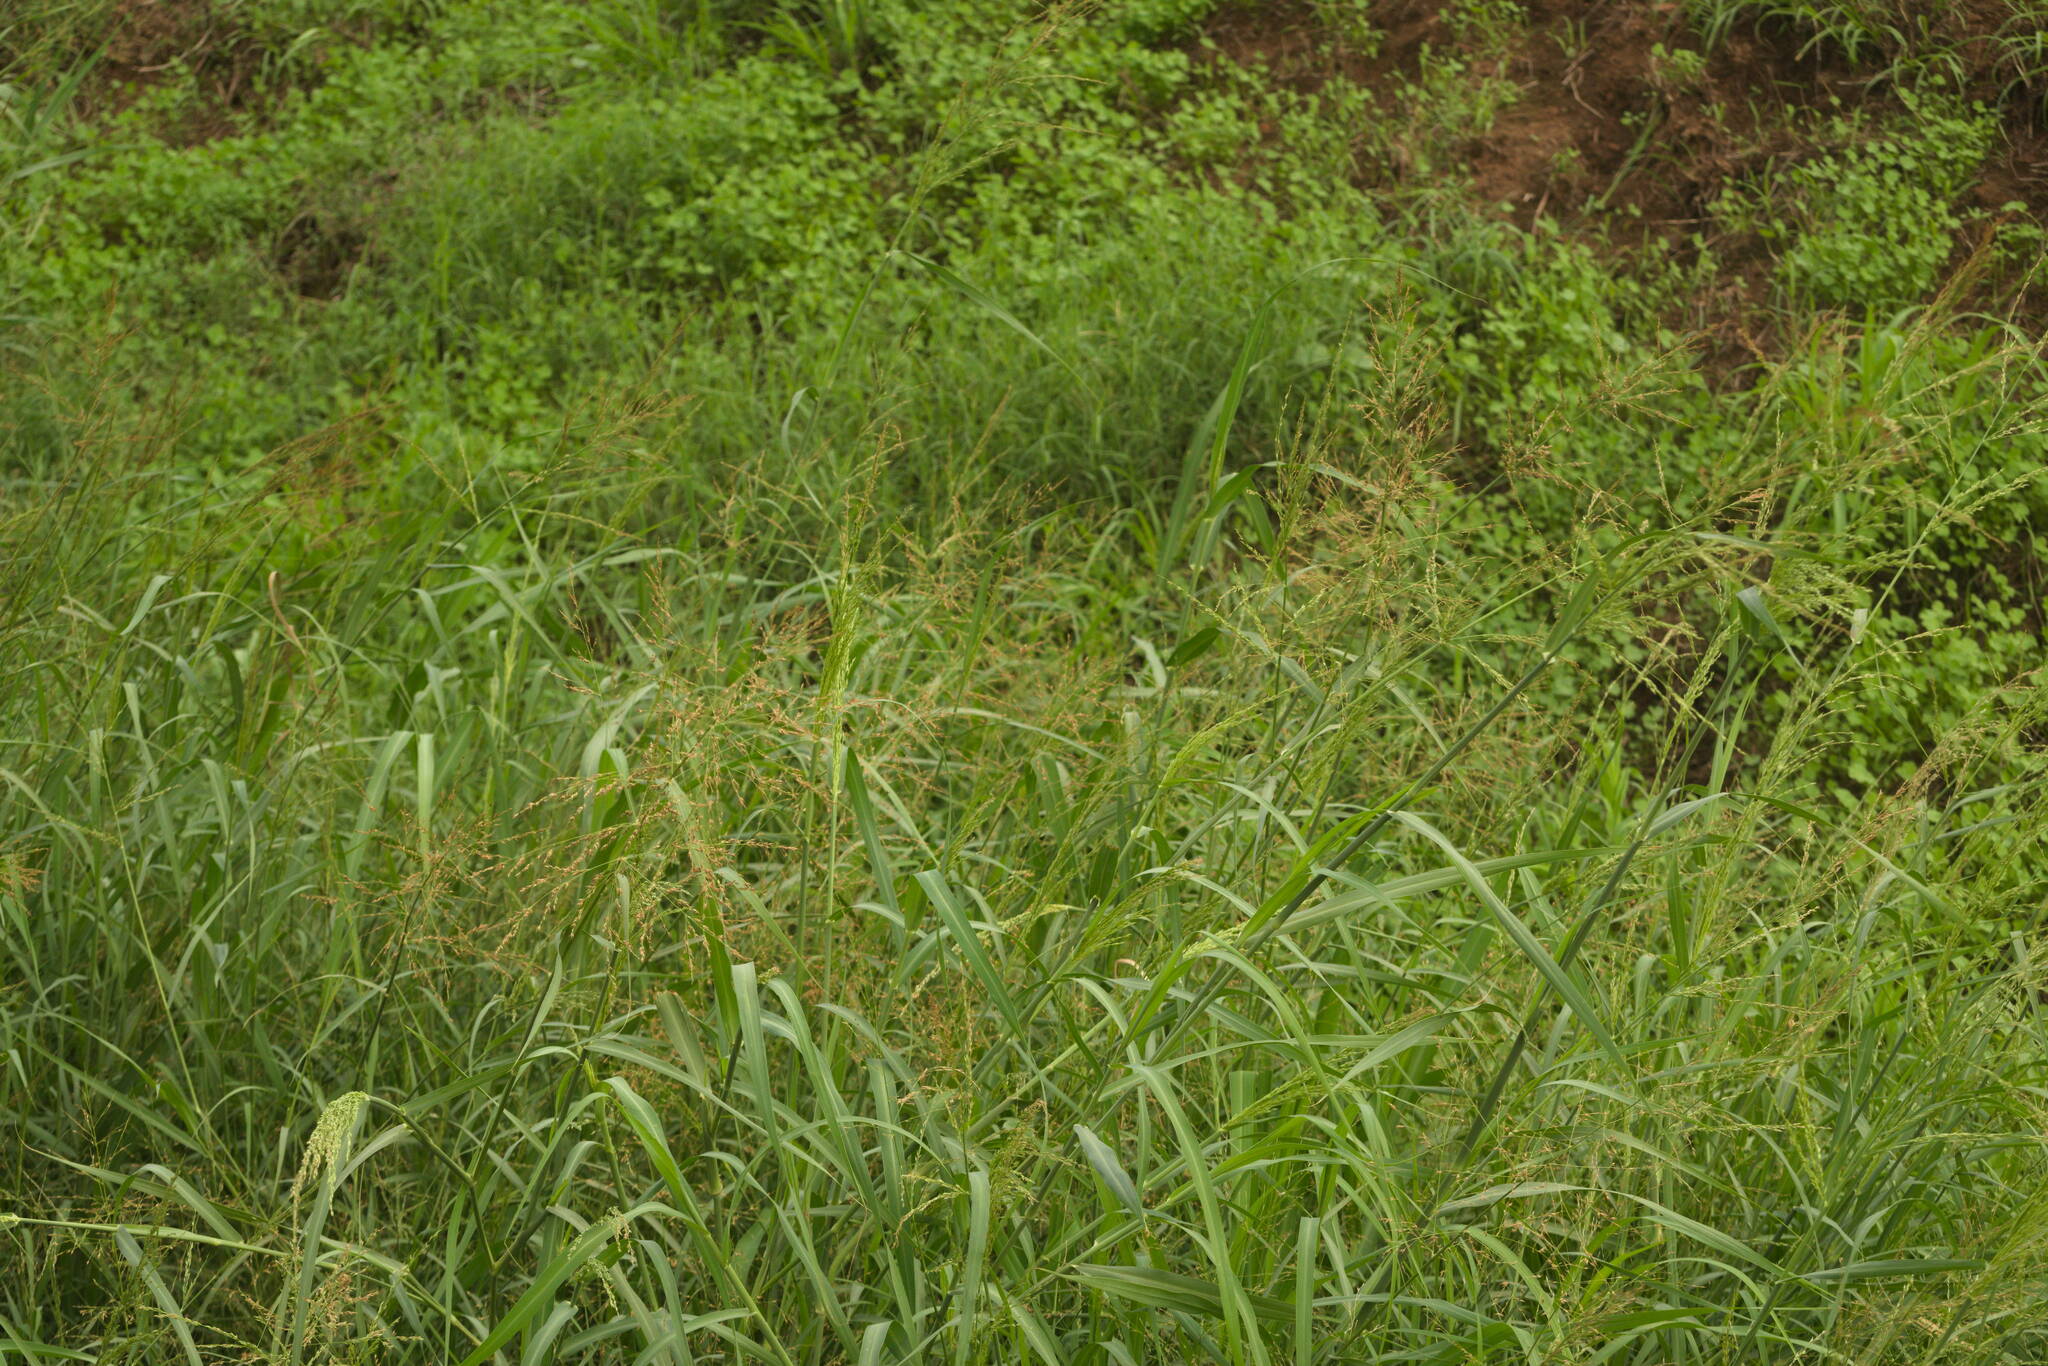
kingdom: Plantae
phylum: Tracheophyta
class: Liliopsida
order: Poales
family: Poaceae
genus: Megathyrsus
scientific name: Megathyrsus maximus
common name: Guineagrass
